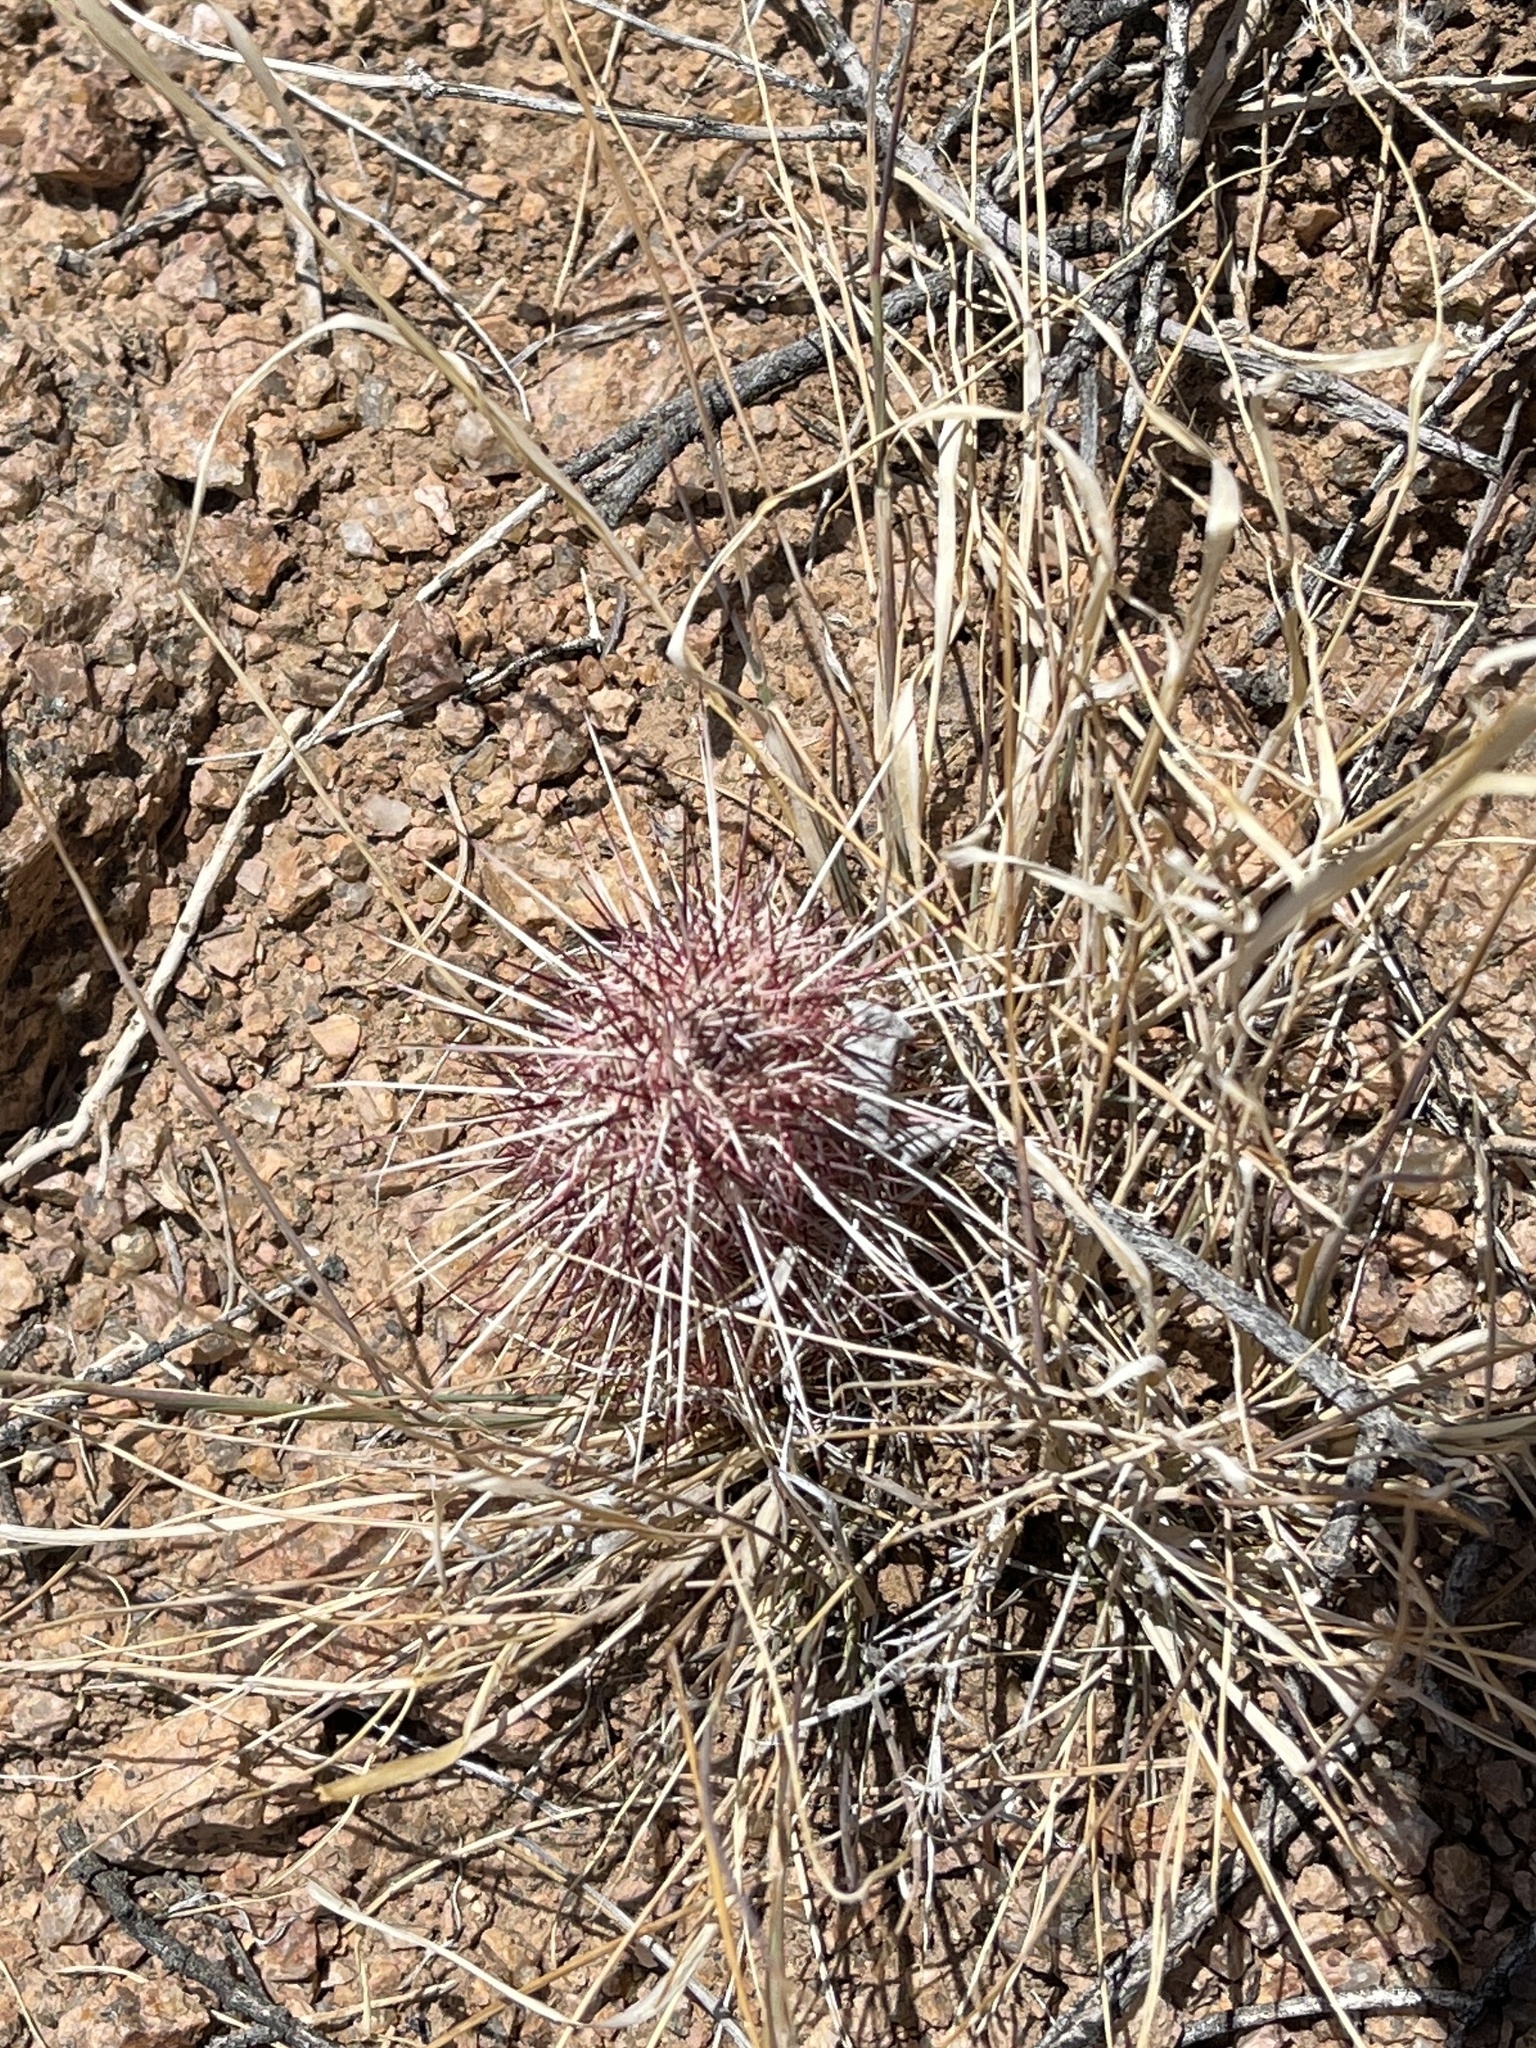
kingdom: Plantae
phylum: Tracheophyta
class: Magnoliopsida
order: Caryophyllales
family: Cactaceae
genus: Echinocereus
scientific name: Echinocereus viridiflorus
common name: Nylon hedgehog cactus
